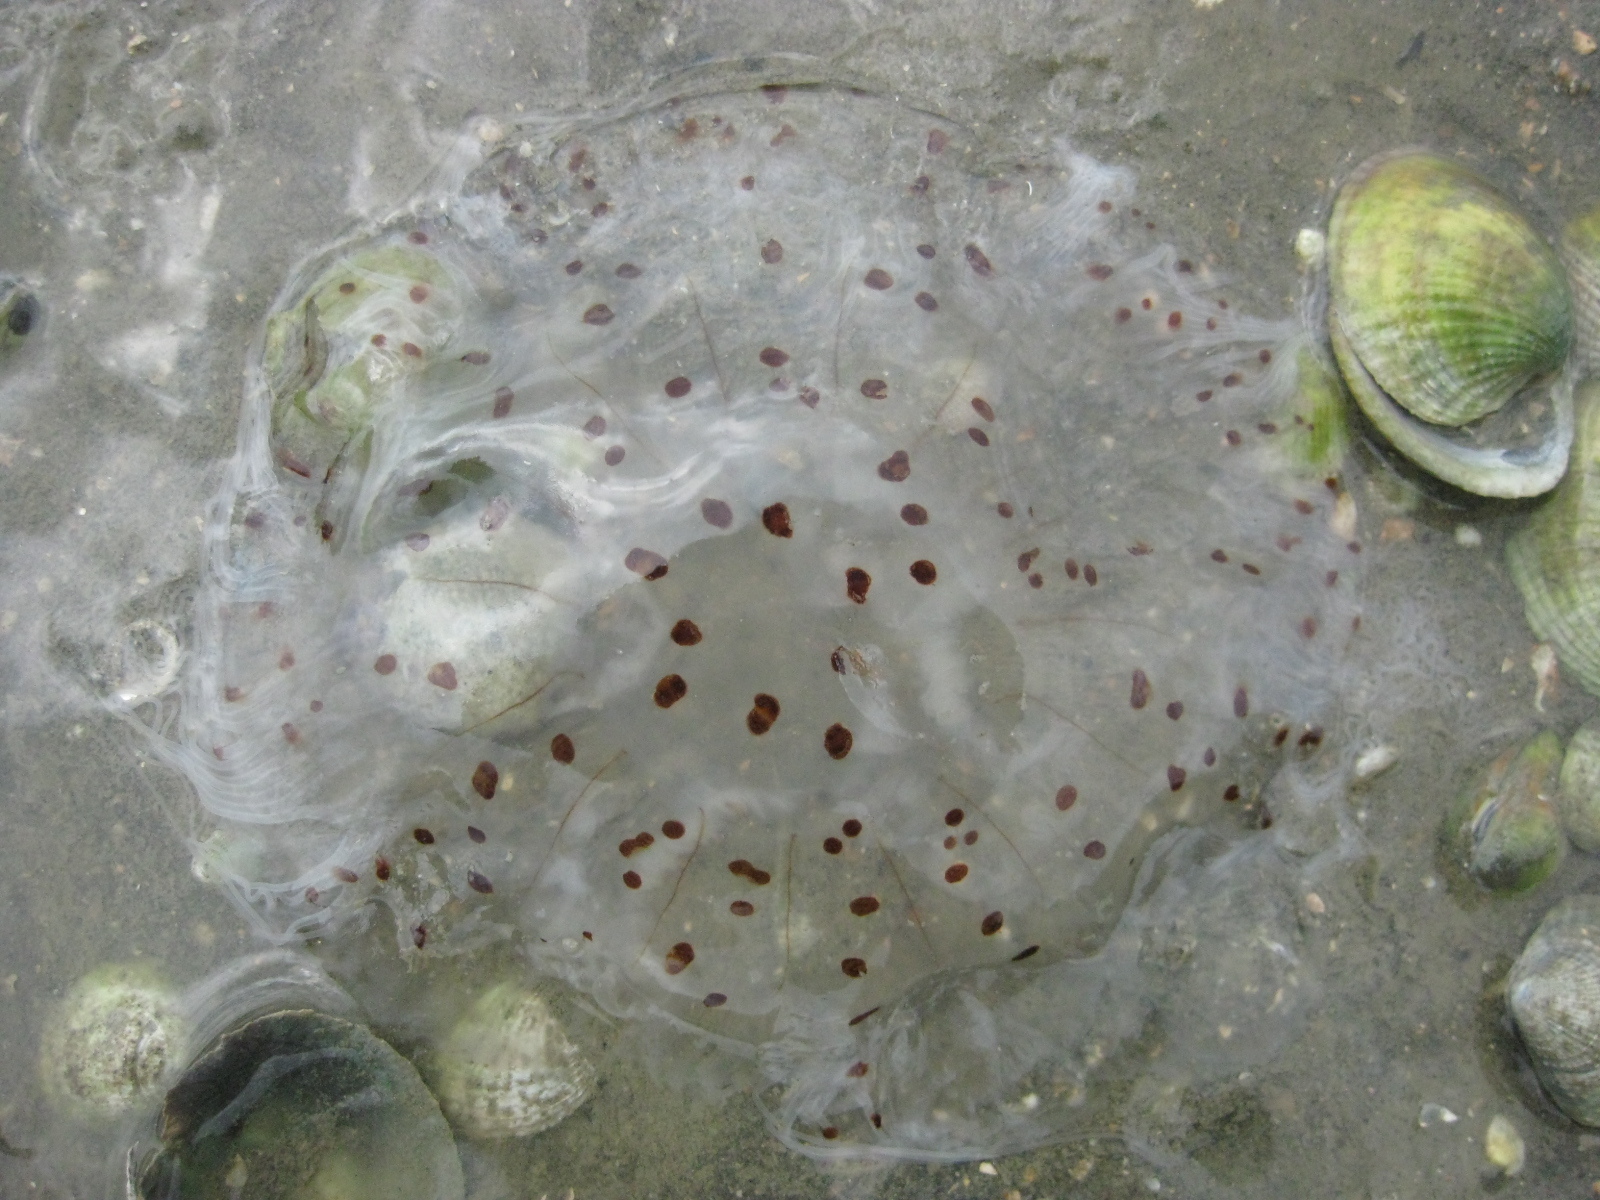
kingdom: Animalia
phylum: Cnidaria
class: Scyphozoa
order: Semaeostomeae
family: Cyaneidae
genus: Desmonema
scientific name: Desmonema gaudichaudi
